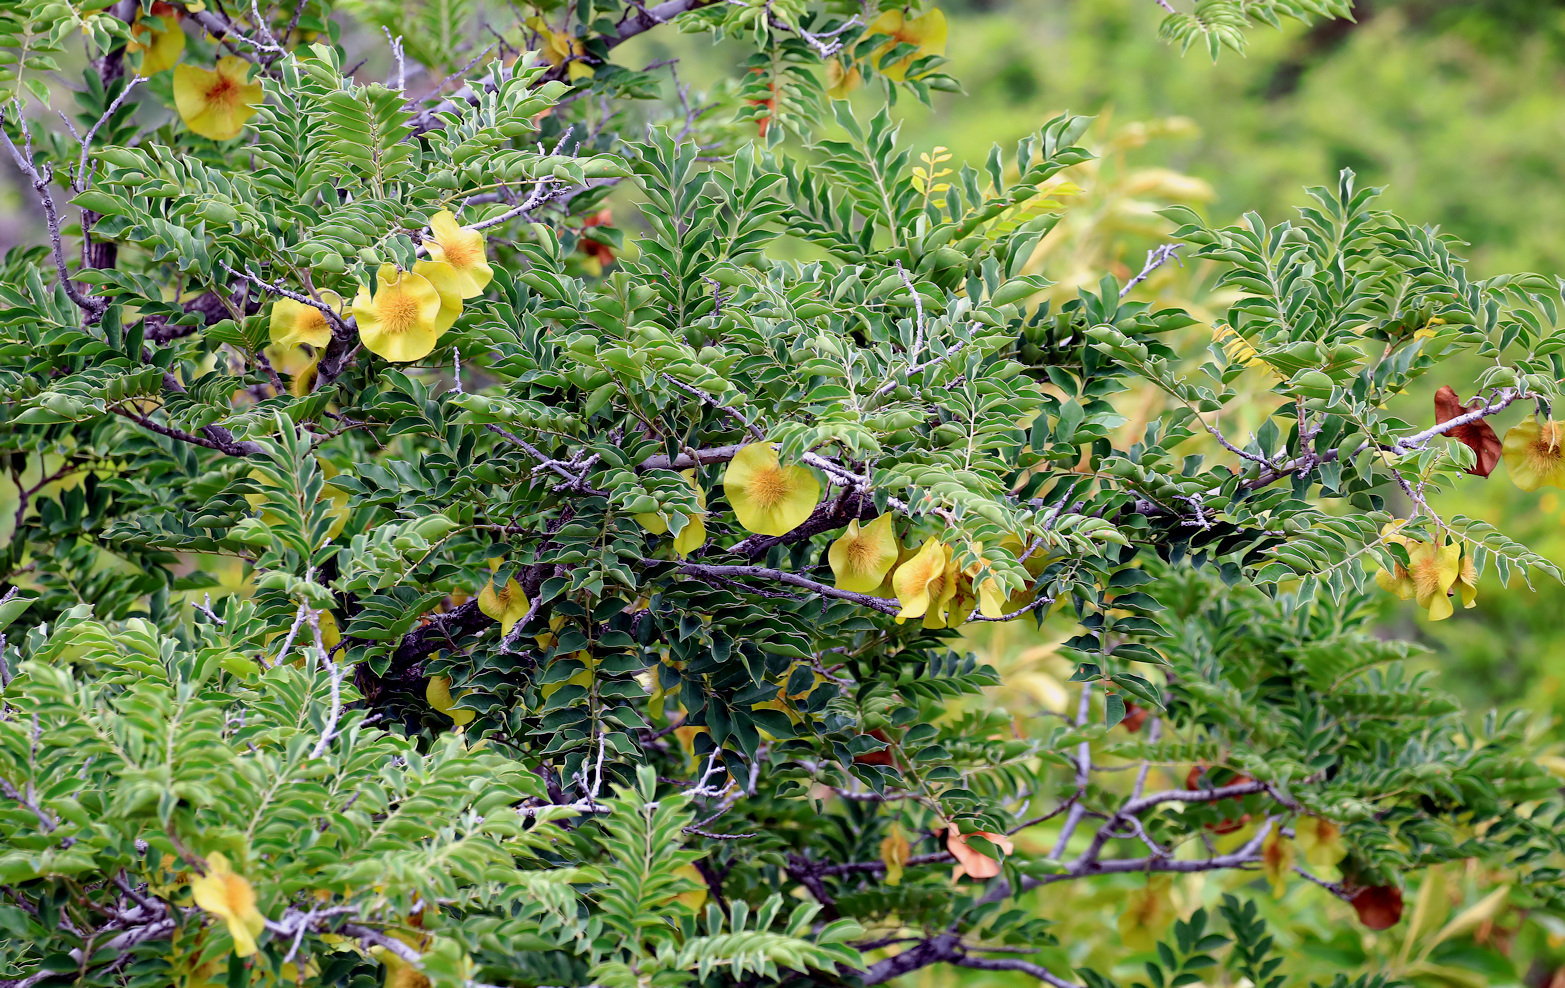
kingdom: Plantae
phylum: Tracheophyta
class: Magnoliopsida
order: Fabales
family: Fabaceae
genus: Pterocarpus
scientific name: Pterocarpus angolensis
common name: Bloodwood tree
